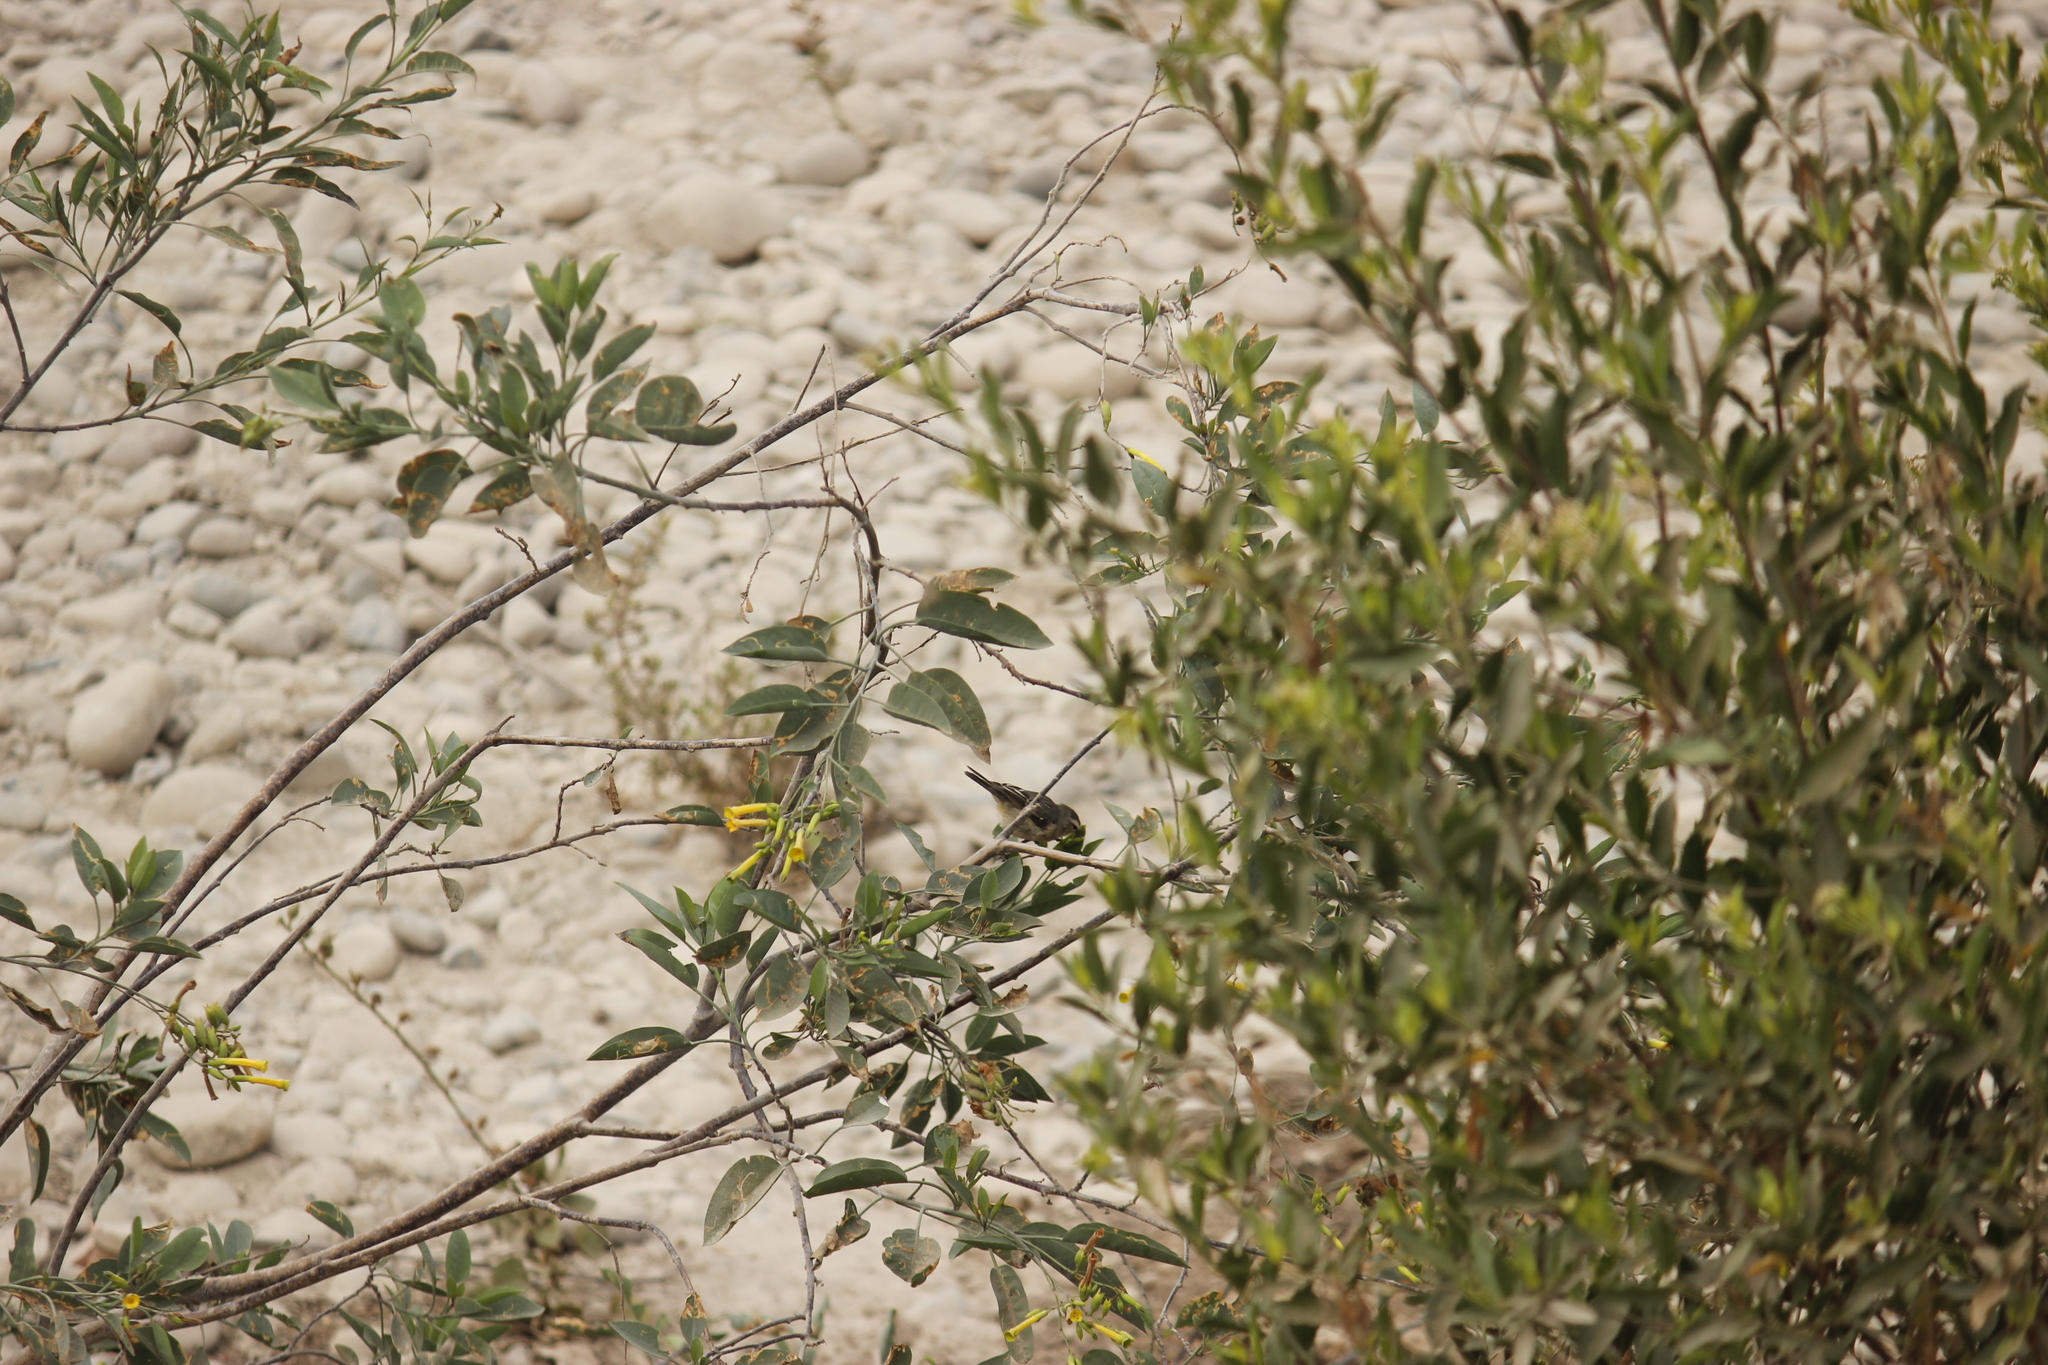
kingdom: Plantae
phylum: Tracheophyta
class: Magnoliopsida
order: Solanales
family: Solanaceae
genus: Nicotiana
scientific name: Nicotiana glauca
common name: Tree tobacco
